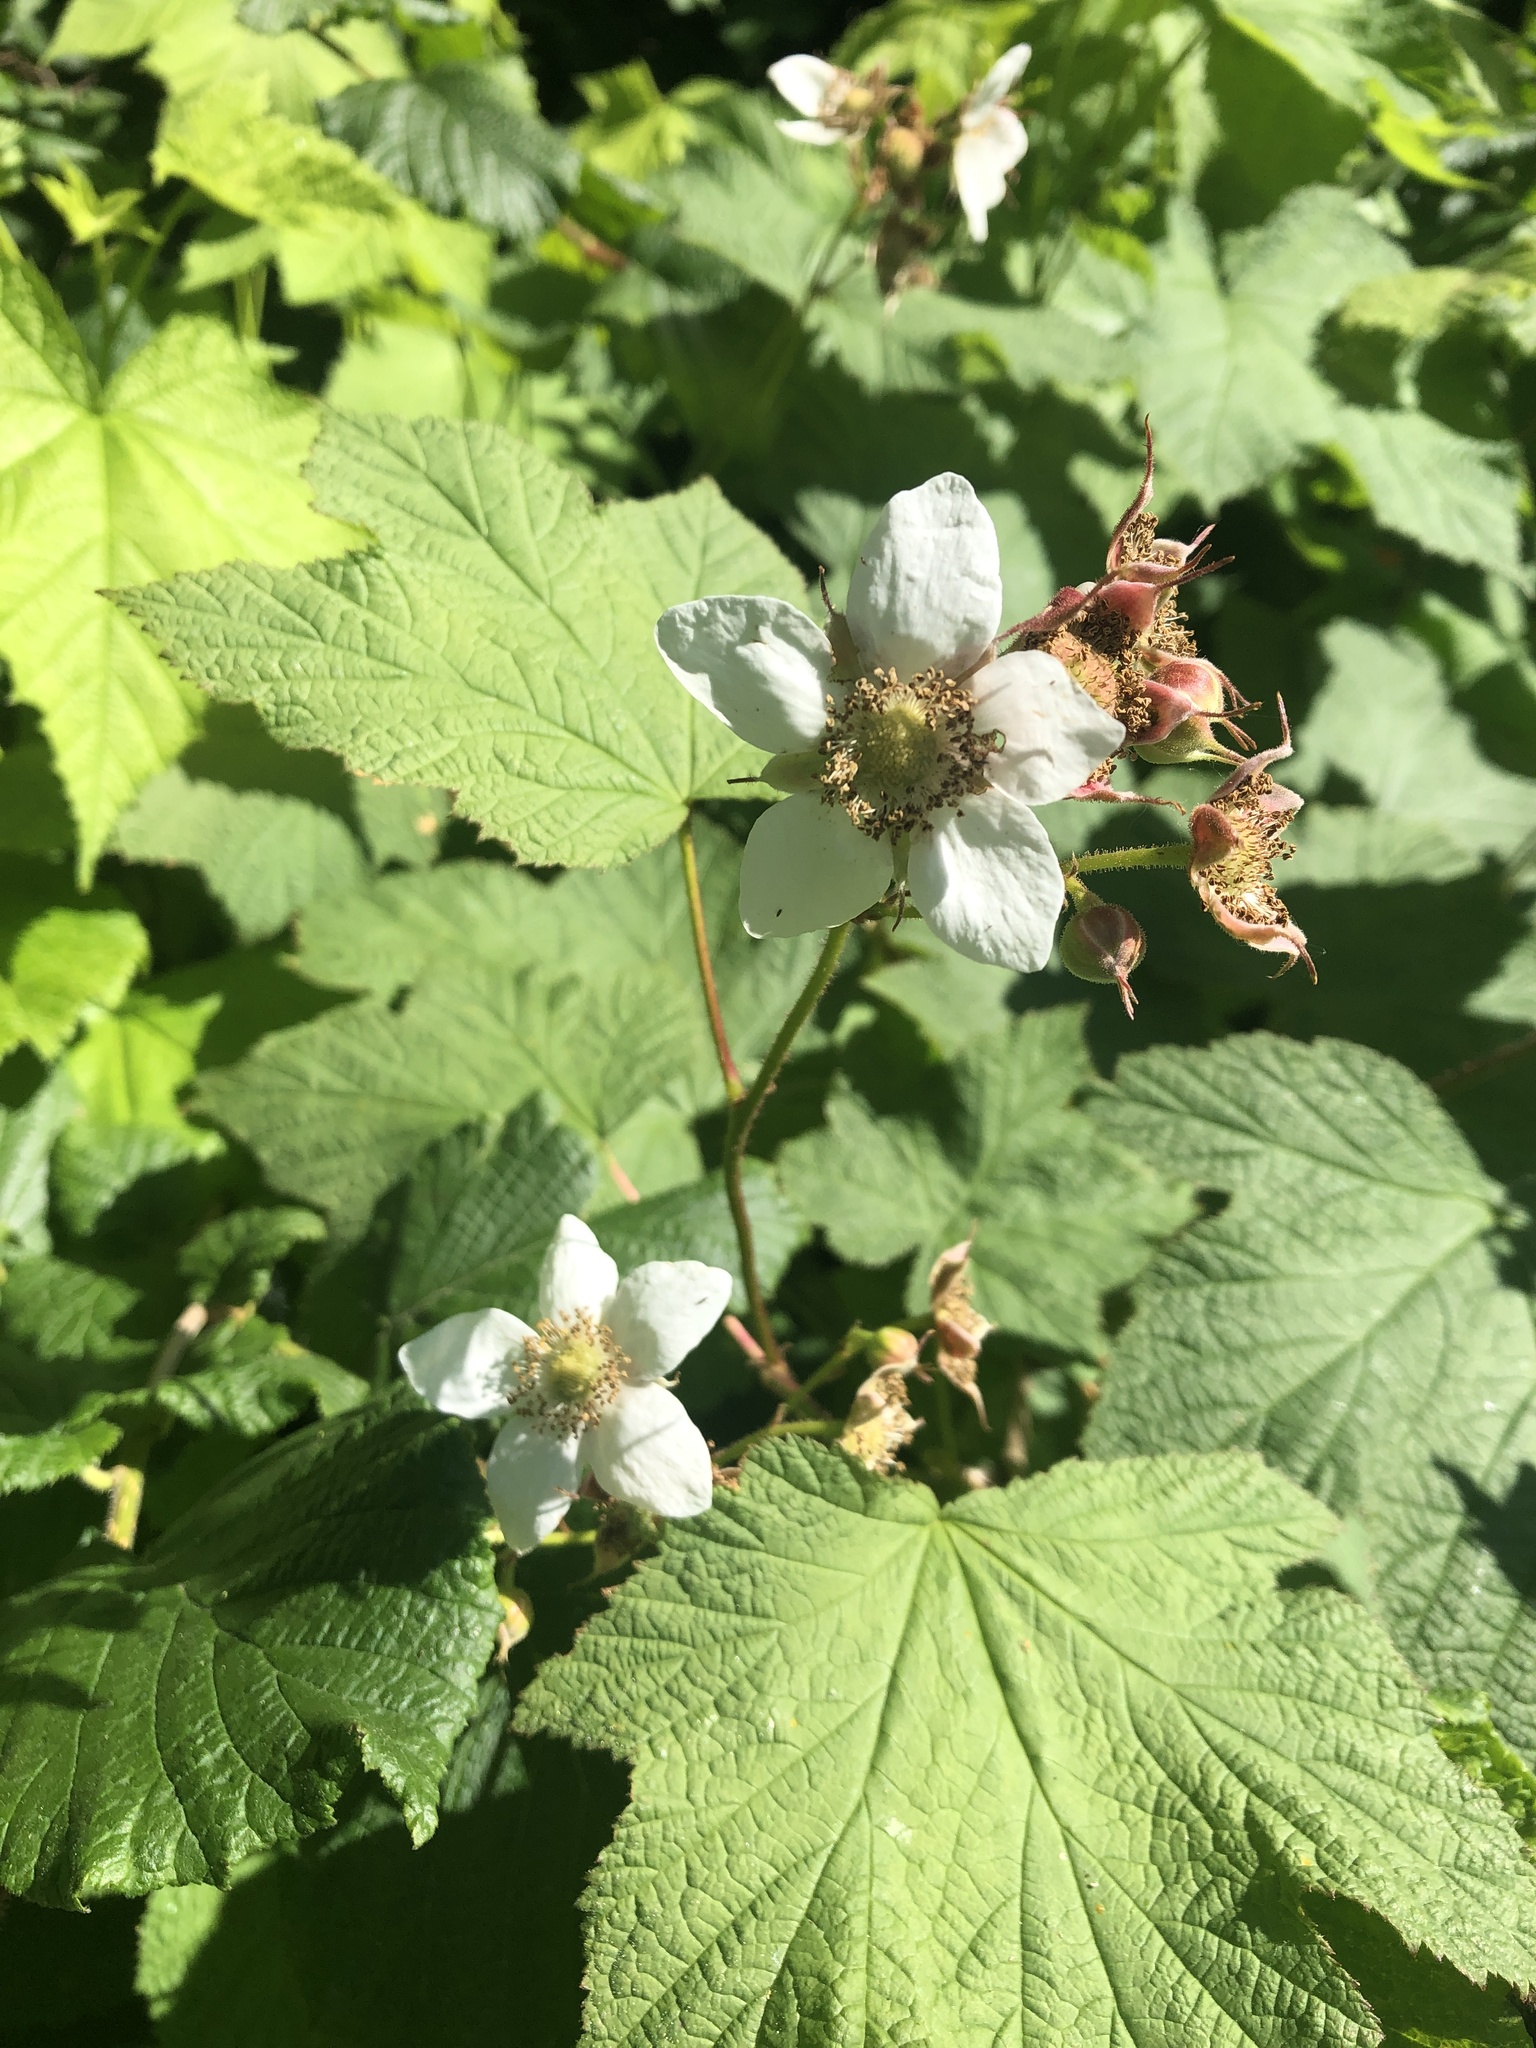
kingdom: Plantae
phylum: Tracheophyta
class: Magnoliopsida
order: Ranunculales
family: Berberidaceae
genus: Mahonia
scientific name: Mahonia nervosa
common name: Cascade oregon-grape
